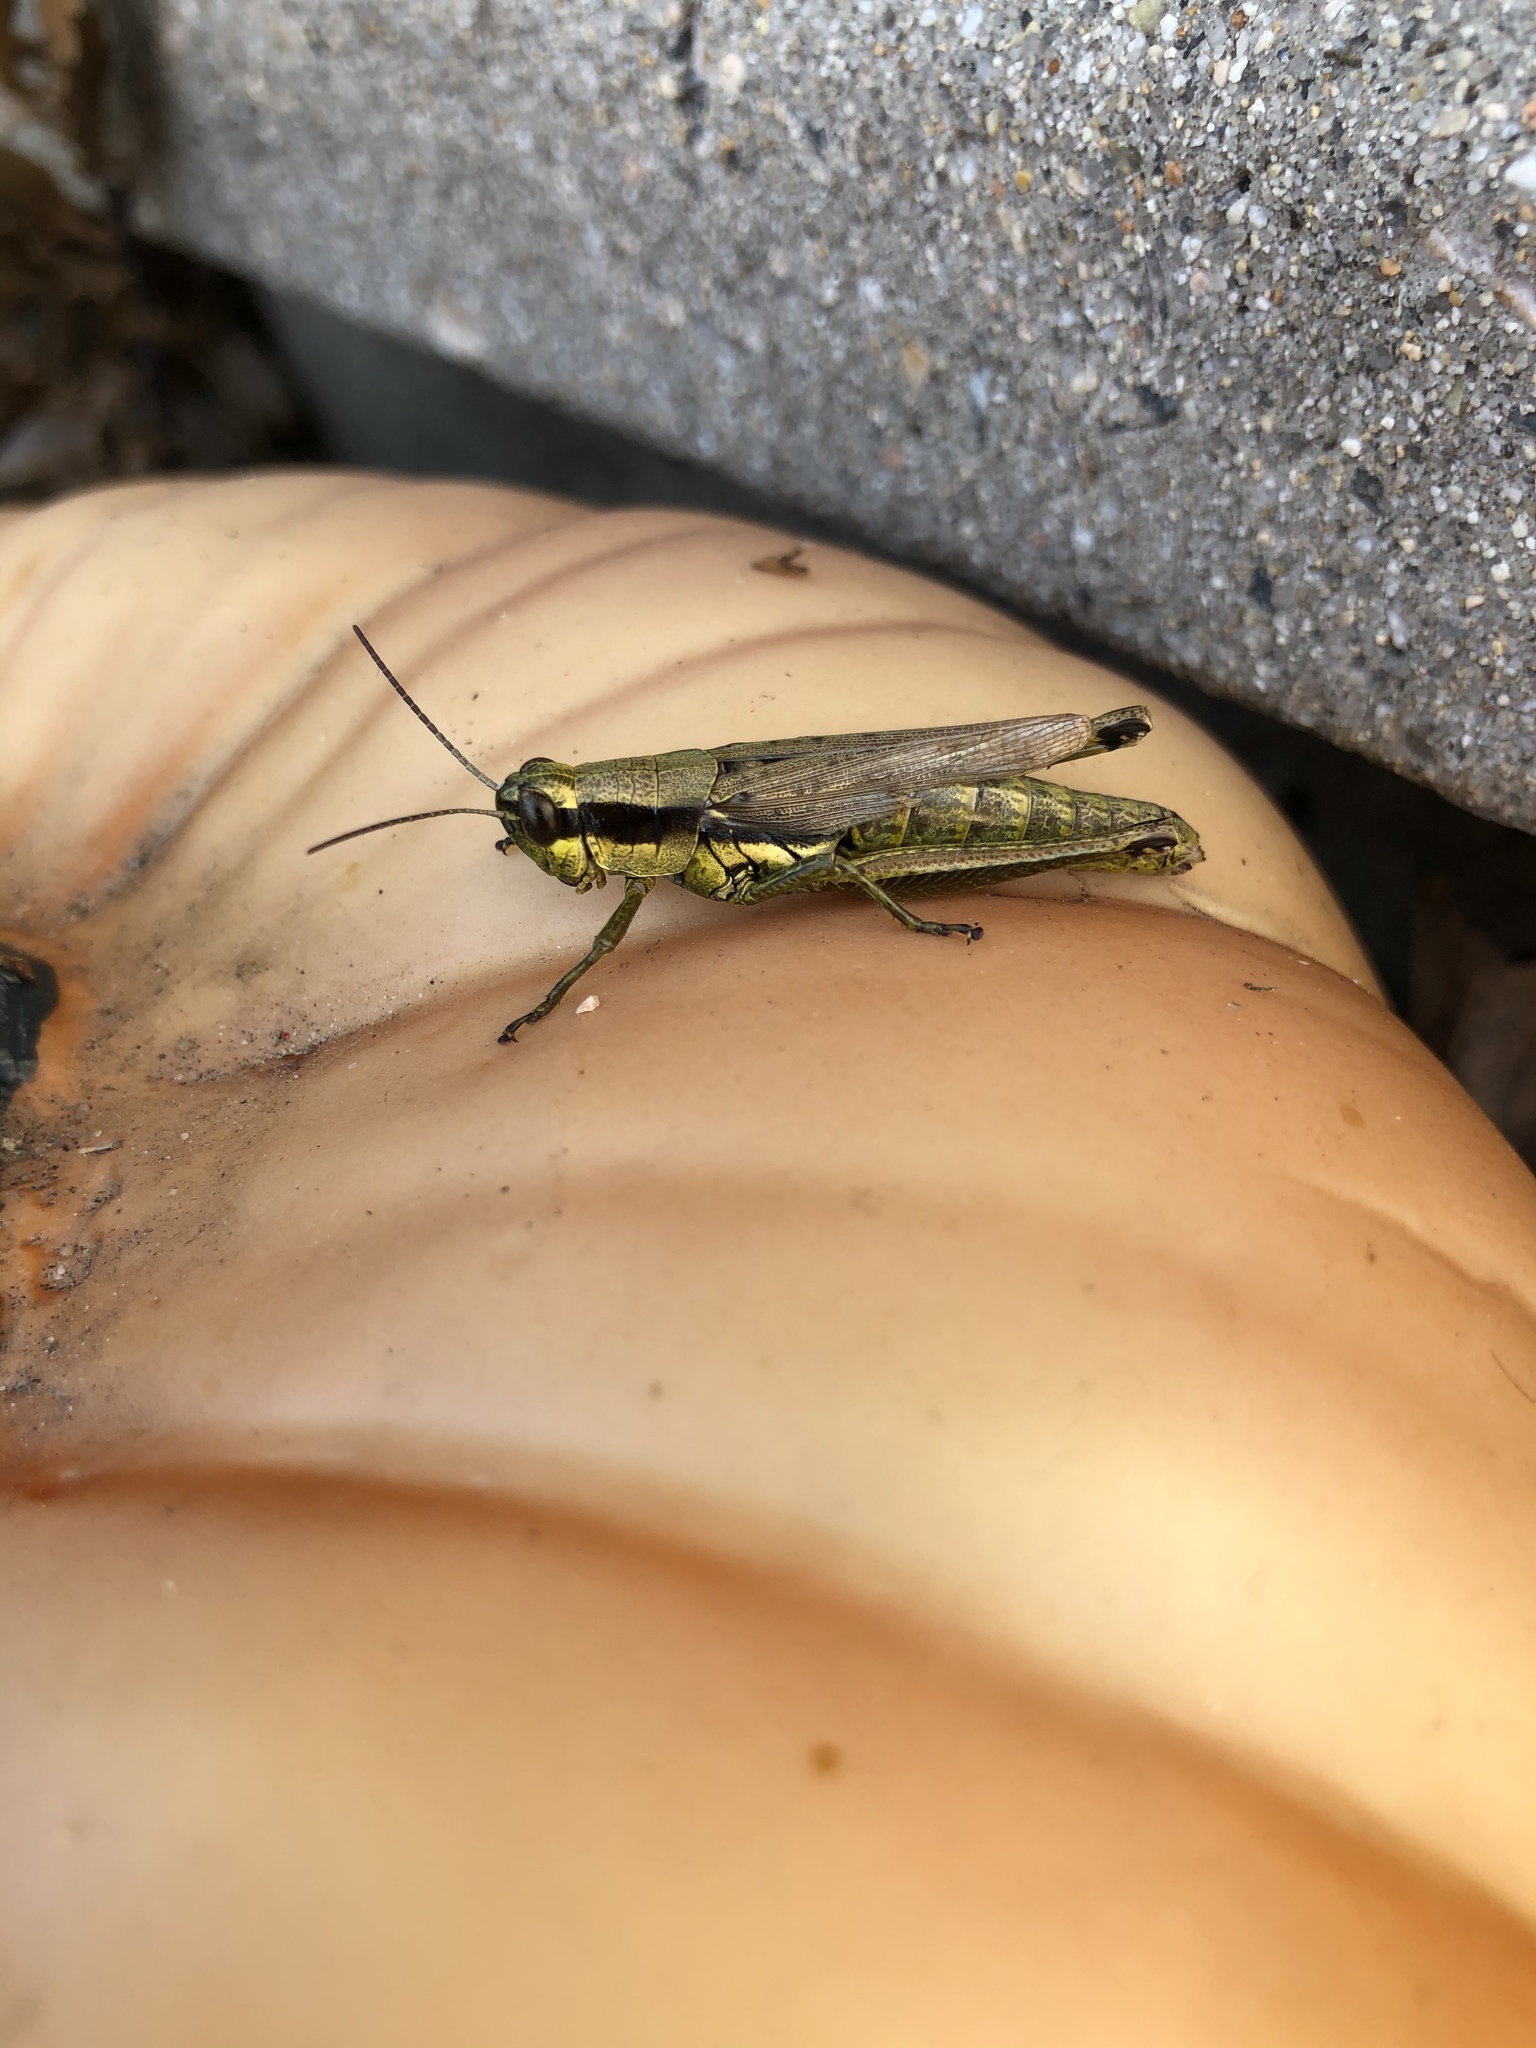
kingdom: Animalia
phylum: Arthropoda
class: Insecta
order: Orthoptera
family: Acrididae
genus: Paroxya
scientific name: Paroxya clavuligera
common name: Olive-green swamp grasshopper
